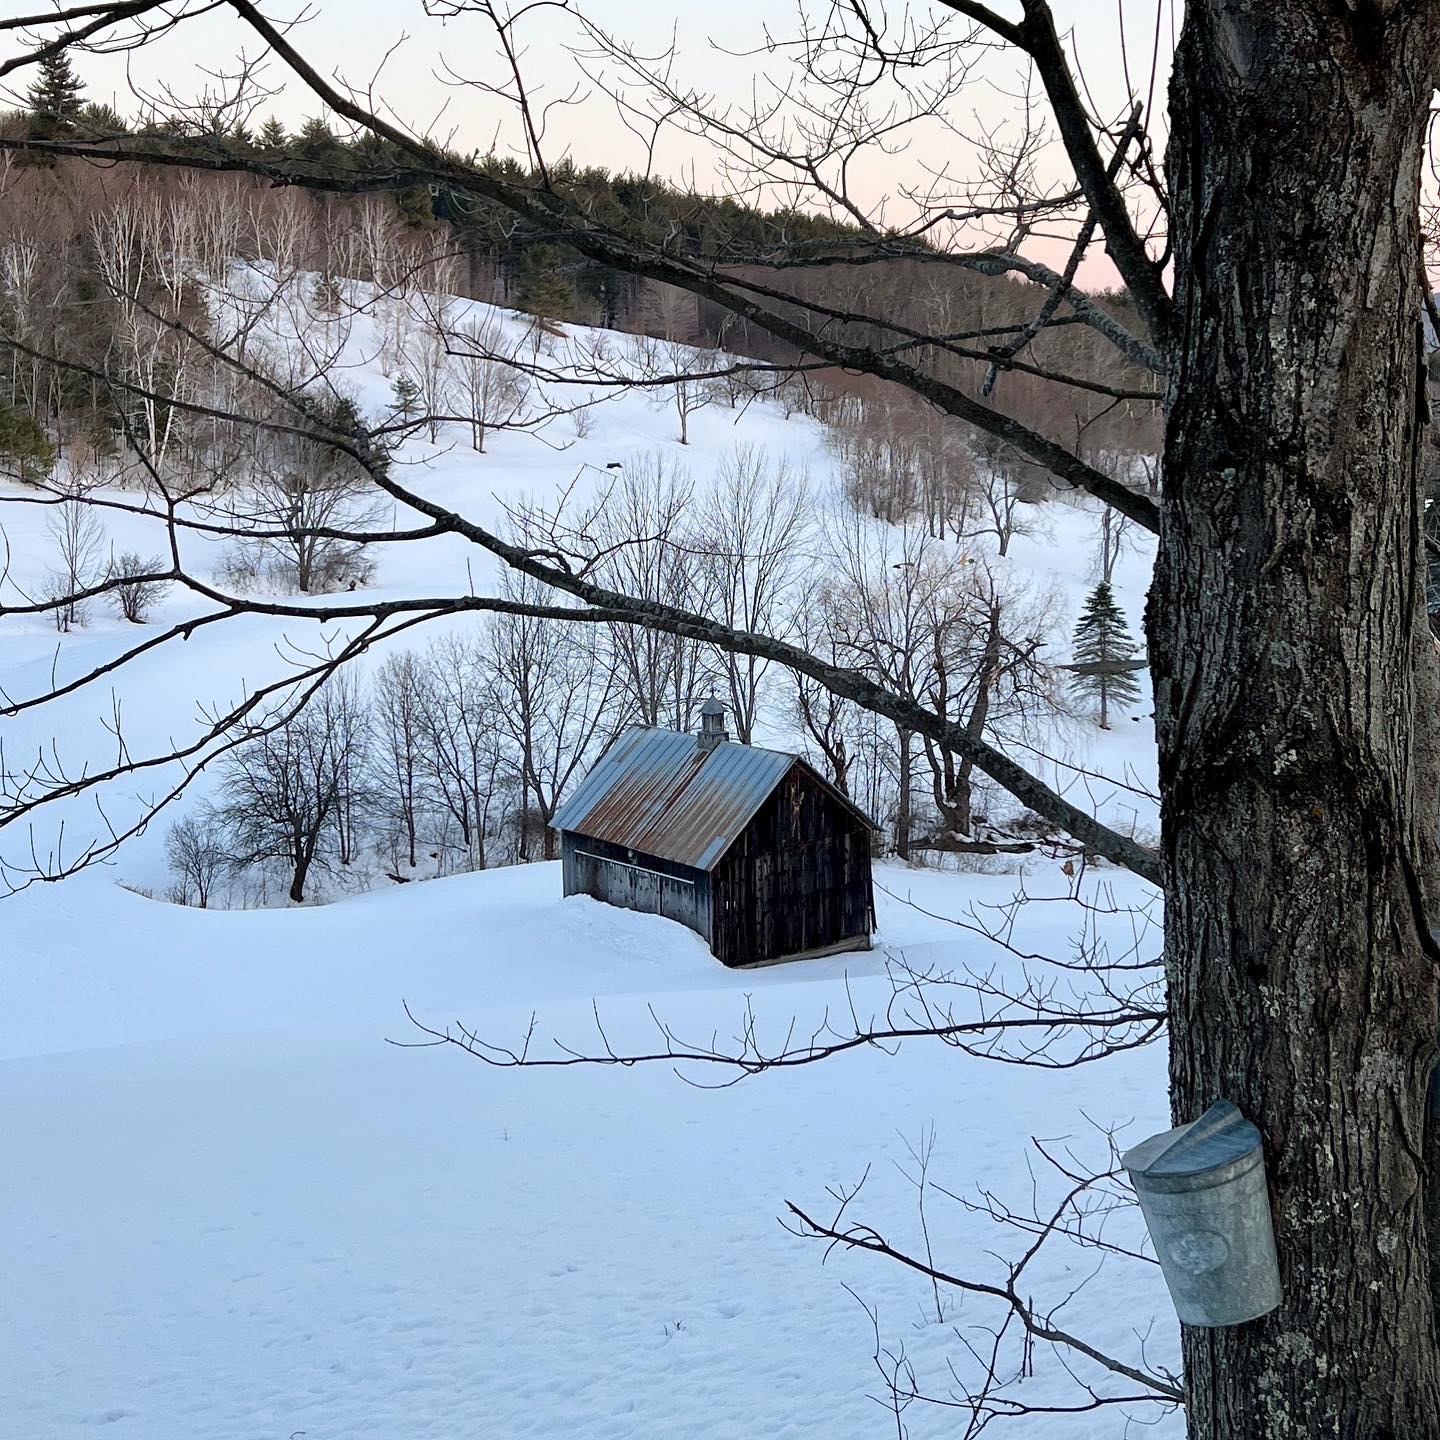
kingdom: Plantae
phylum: Tracheophyta
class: Magnoliopsida
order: Sapindales
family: Sapindaceae
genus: Acer
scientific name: Acer saccharum
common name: Sugar maple
